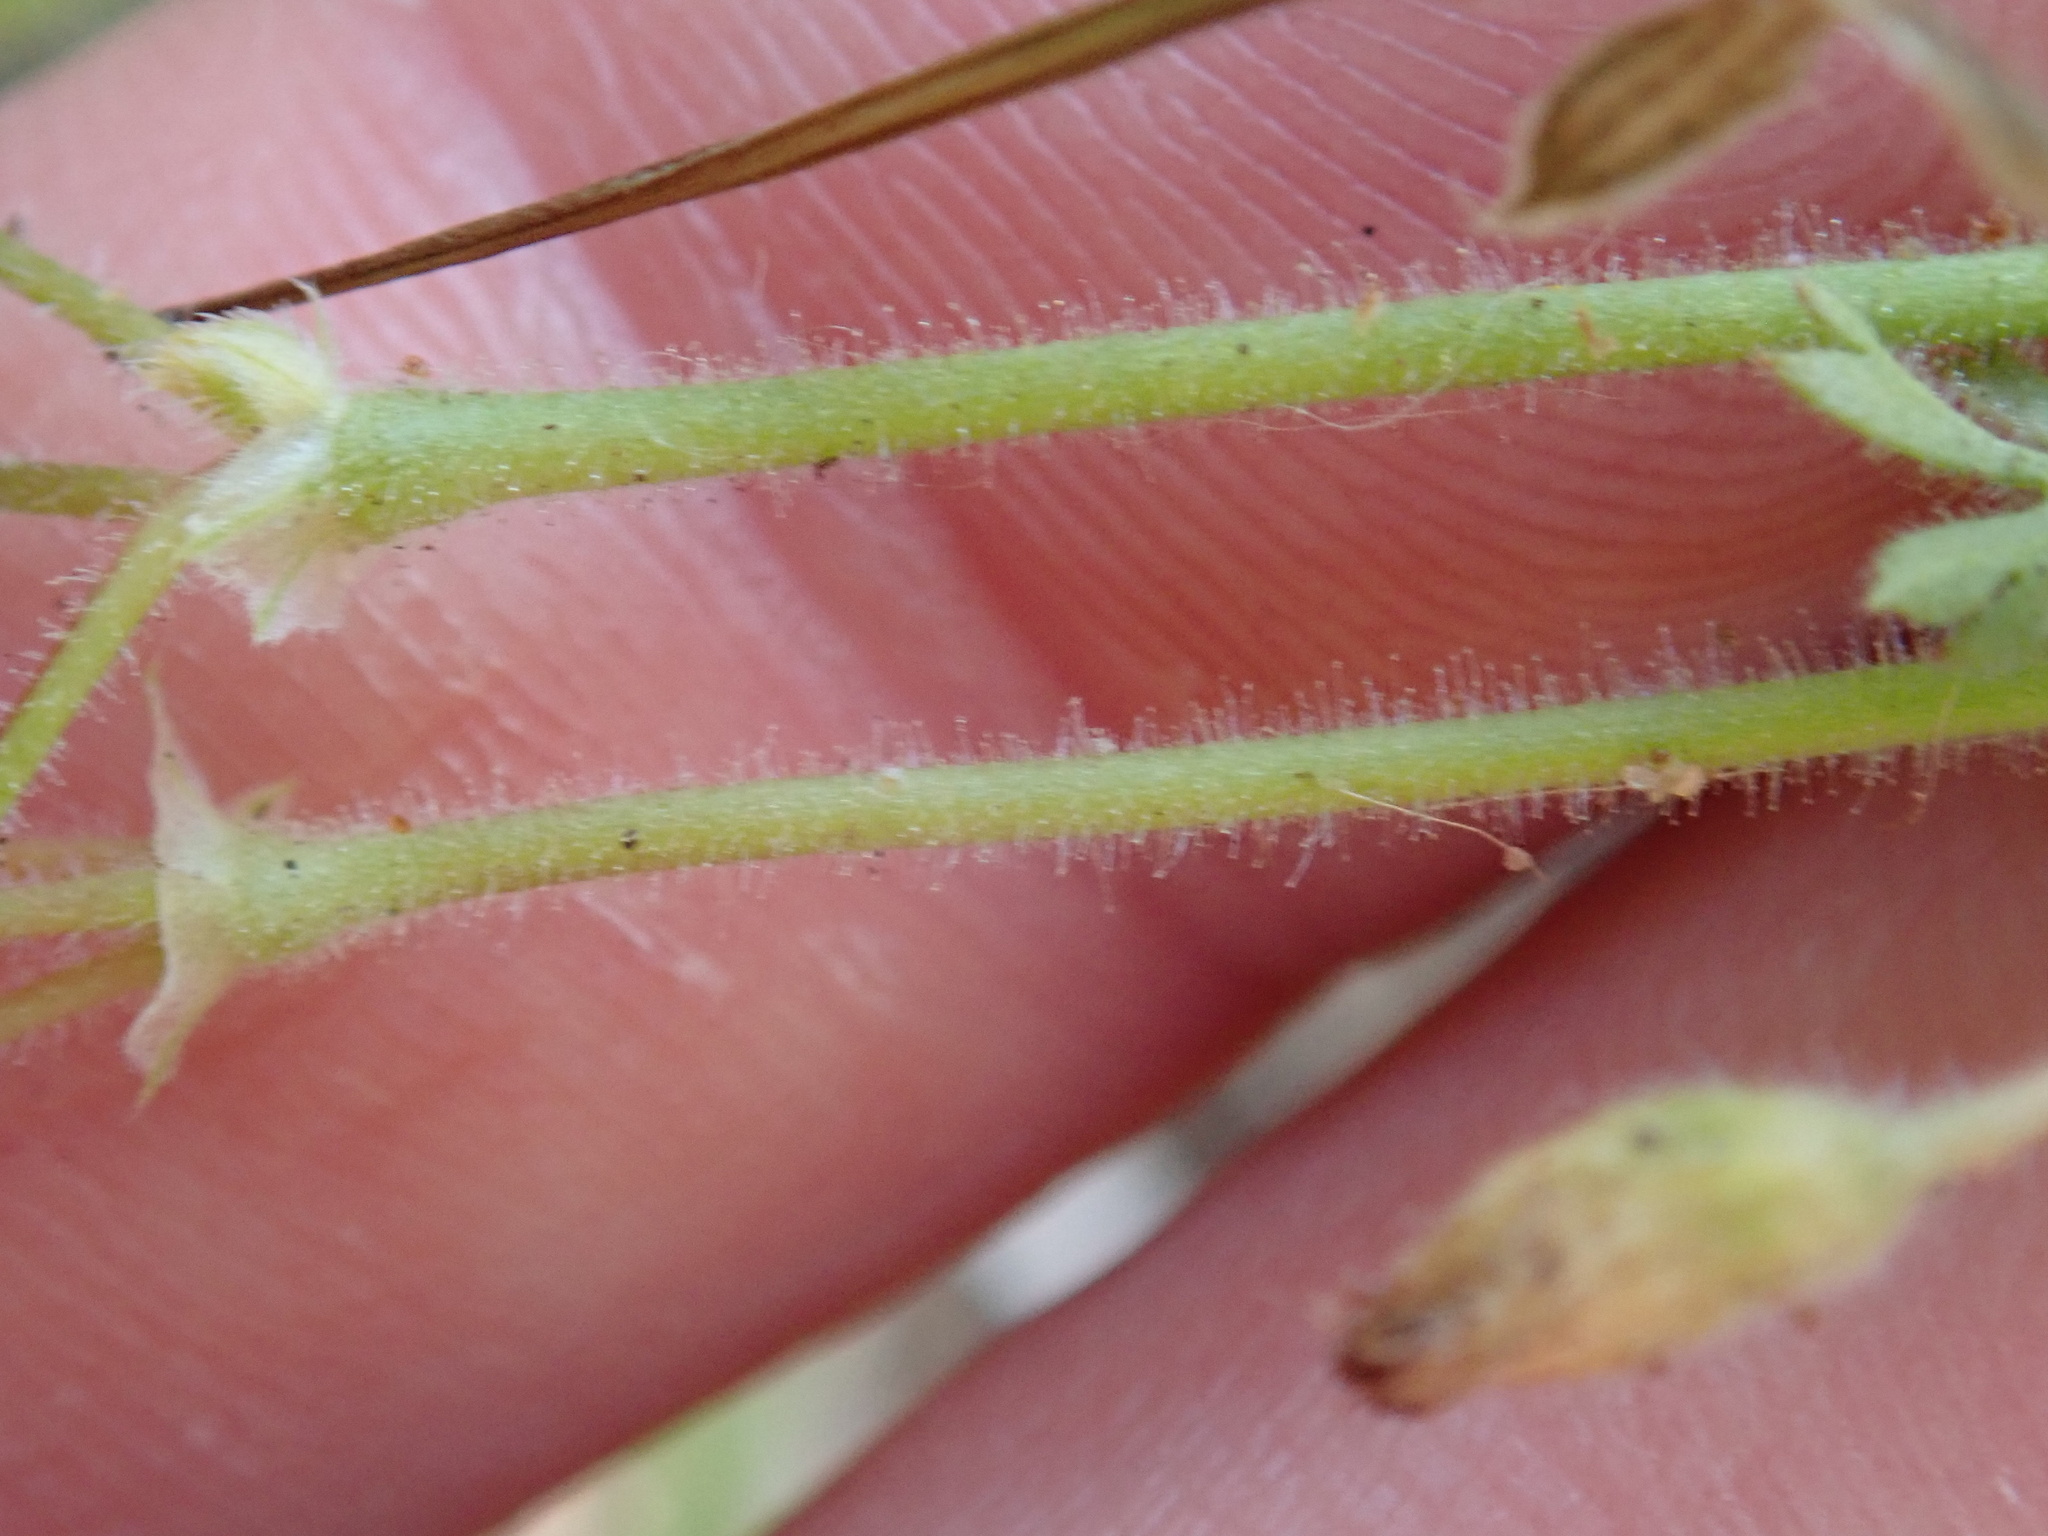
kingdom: Plantae
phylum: Tracheophyta
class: Magnoliopsida
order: Geraniales
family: Geraniaceae
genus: Erodium
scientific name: Erodium cicutarium
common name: Common stork's-bill
